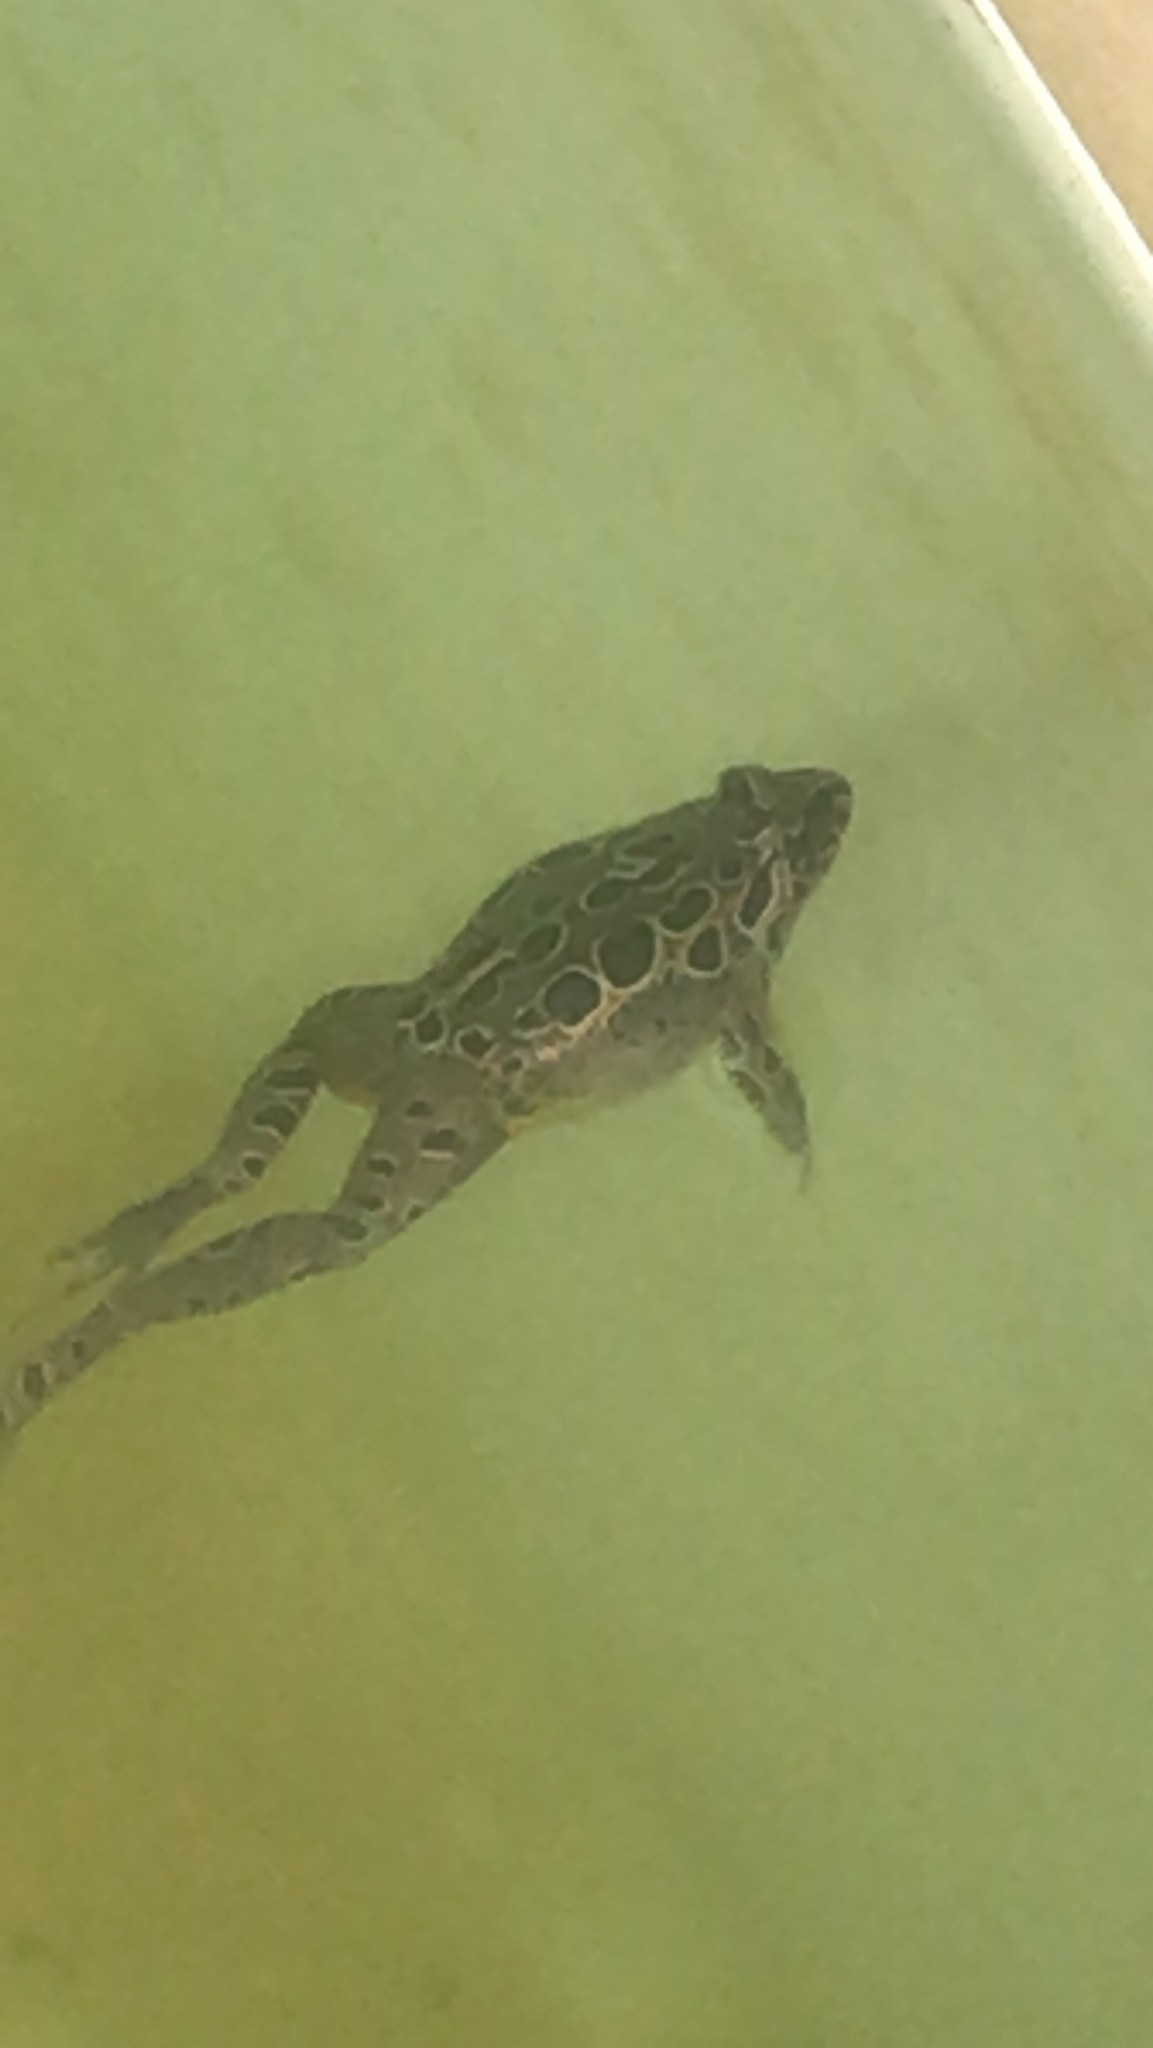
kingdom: Animalia
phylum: Chordata
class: Amphibia
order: Anura
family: Alytidae
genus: Discoglossus
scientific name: Discoglossus galganoi
